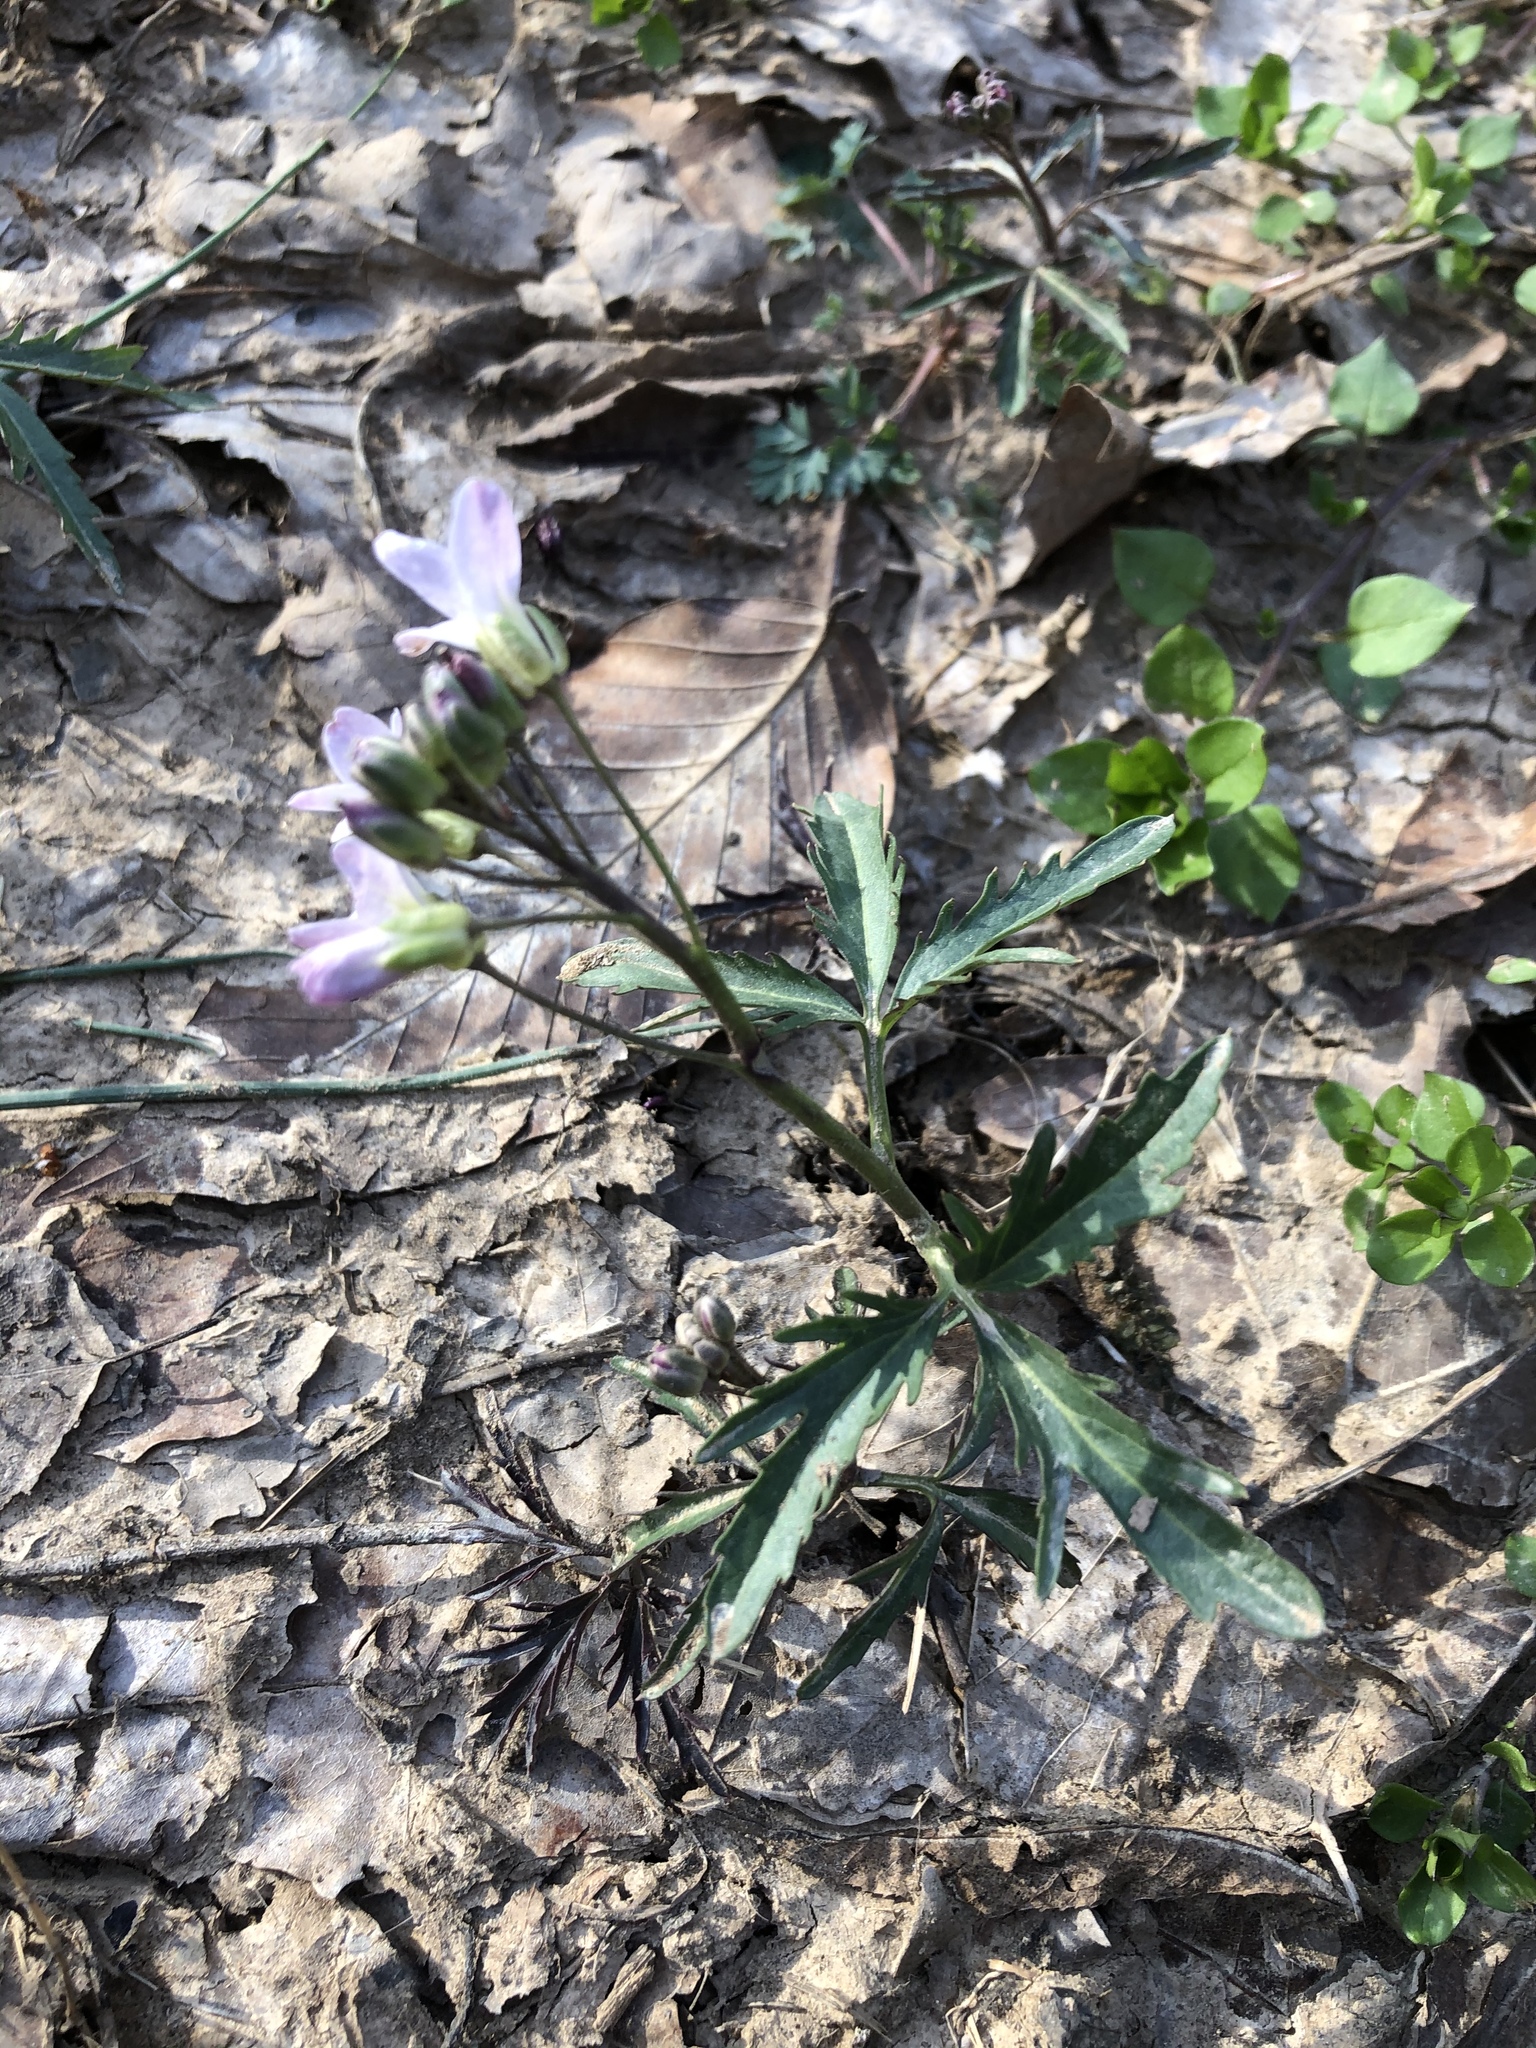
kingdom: Plantae
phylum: Tracheophyta
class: Magnoliopsida
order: Brassicales
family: Brassicaceae
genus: Cardamine
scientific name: Cardamine concatenata
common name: Cut-leaf toothcup
